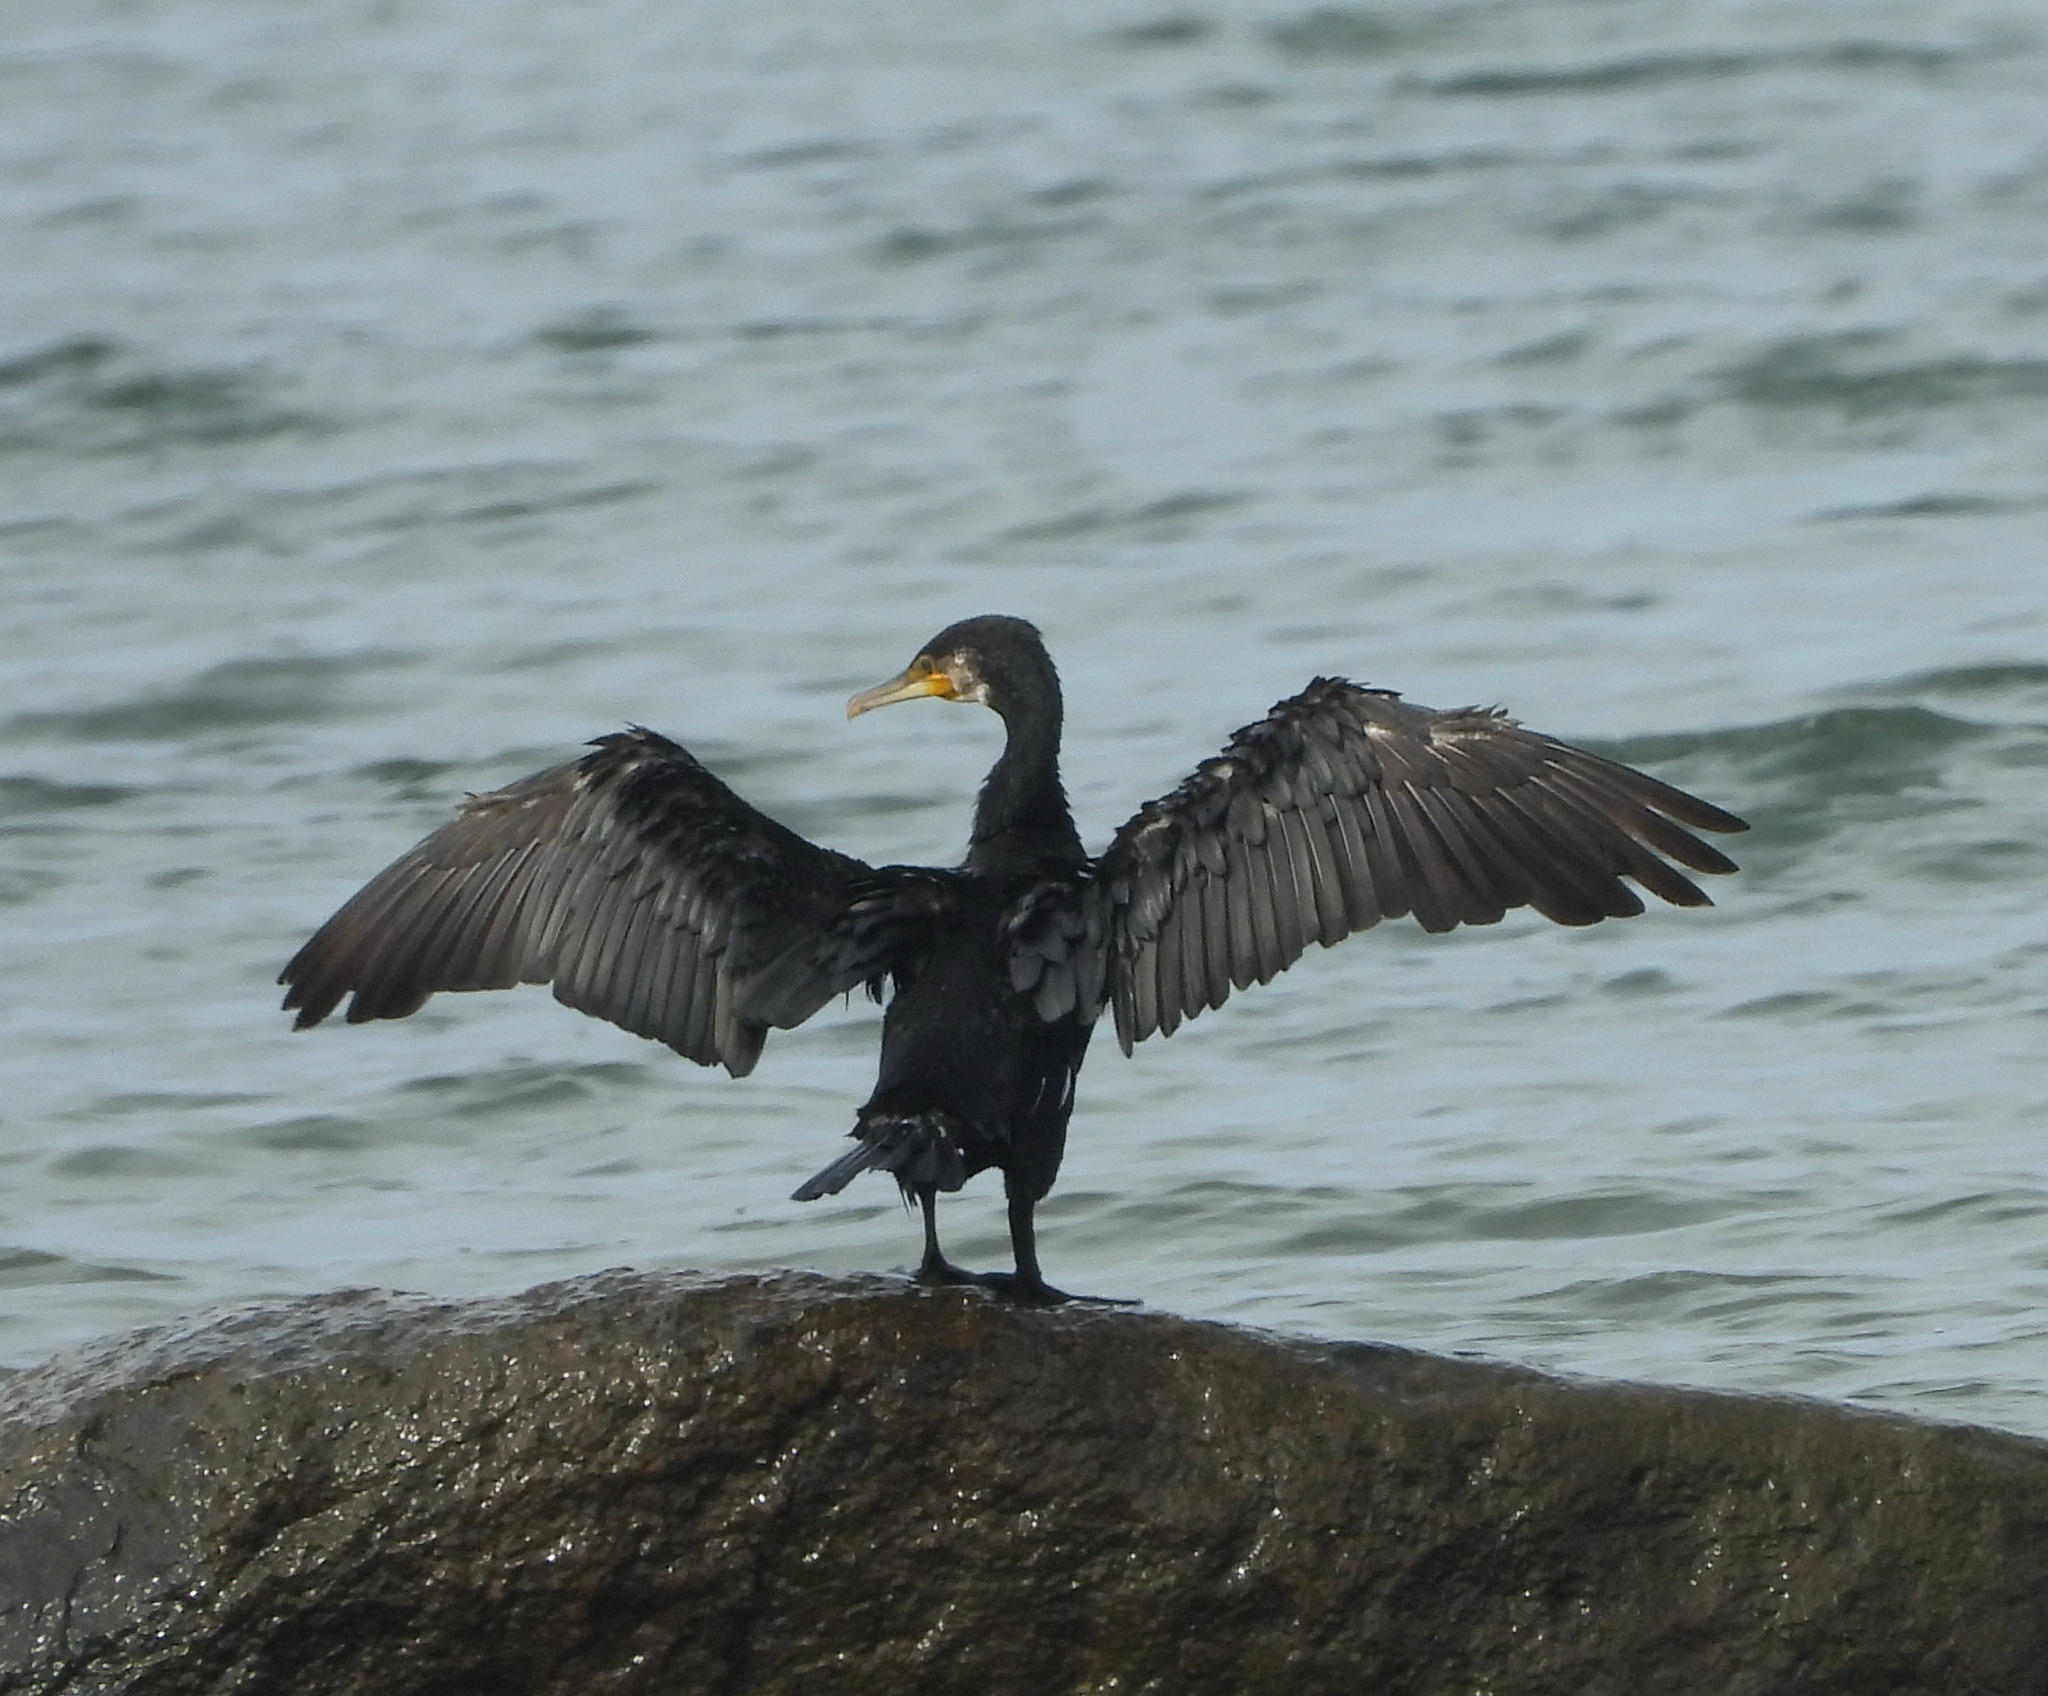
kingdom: Animalia
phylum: Chordata
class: Aves
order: Suliformes
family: Phalacrocoracidae
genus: Phalacrocorax
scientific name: Phalacrocorax carbo
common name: Great cormorant
